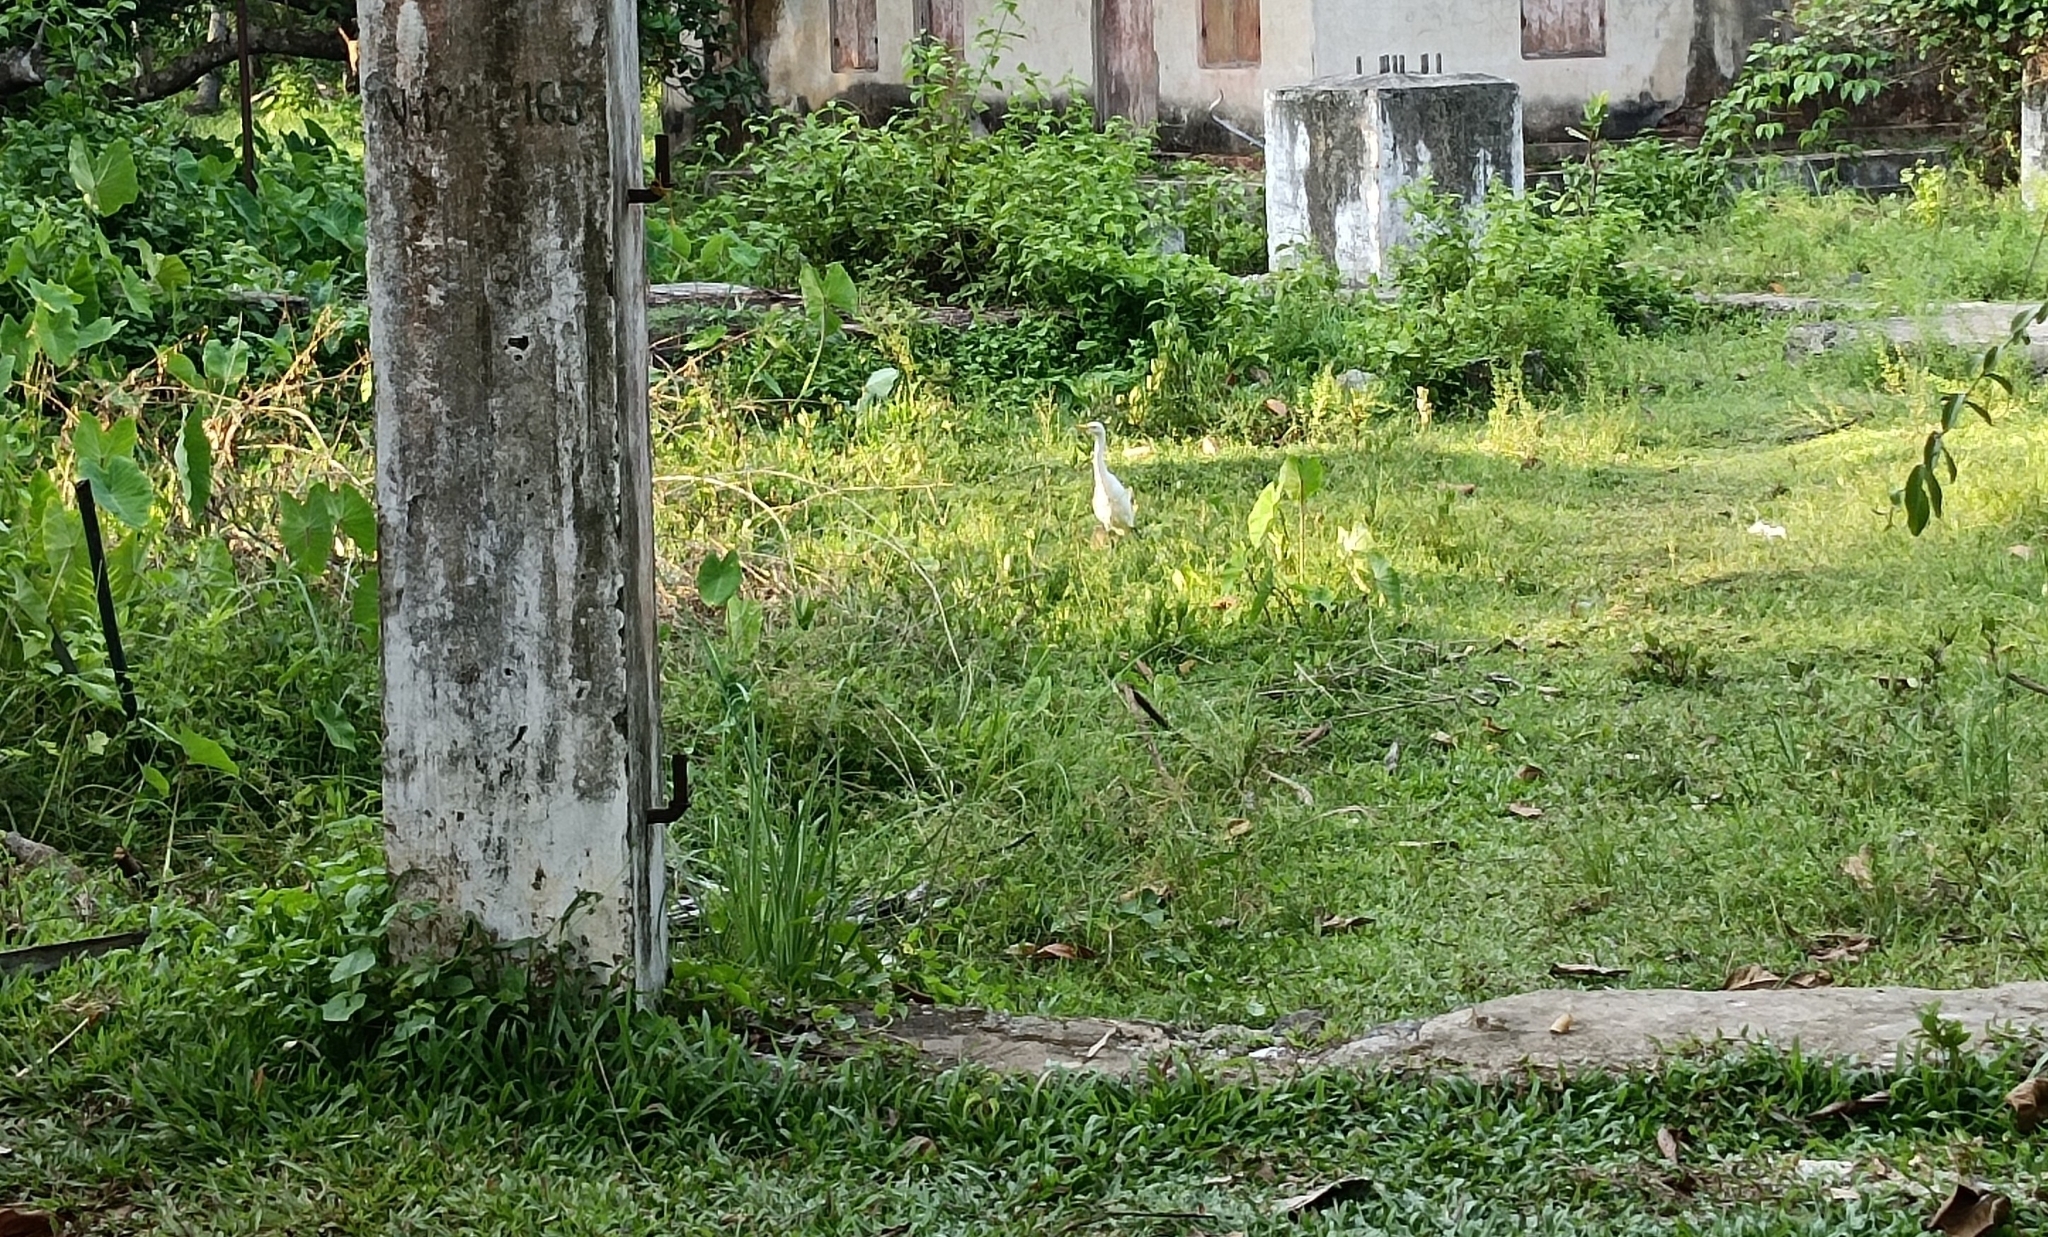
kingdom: Animalia
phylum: Chordata
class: Aves
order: Pelecaniformes
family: Ardeidae
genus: Bubulcus
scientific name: Bubulcus coromandus
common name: Eastern cattle egret
